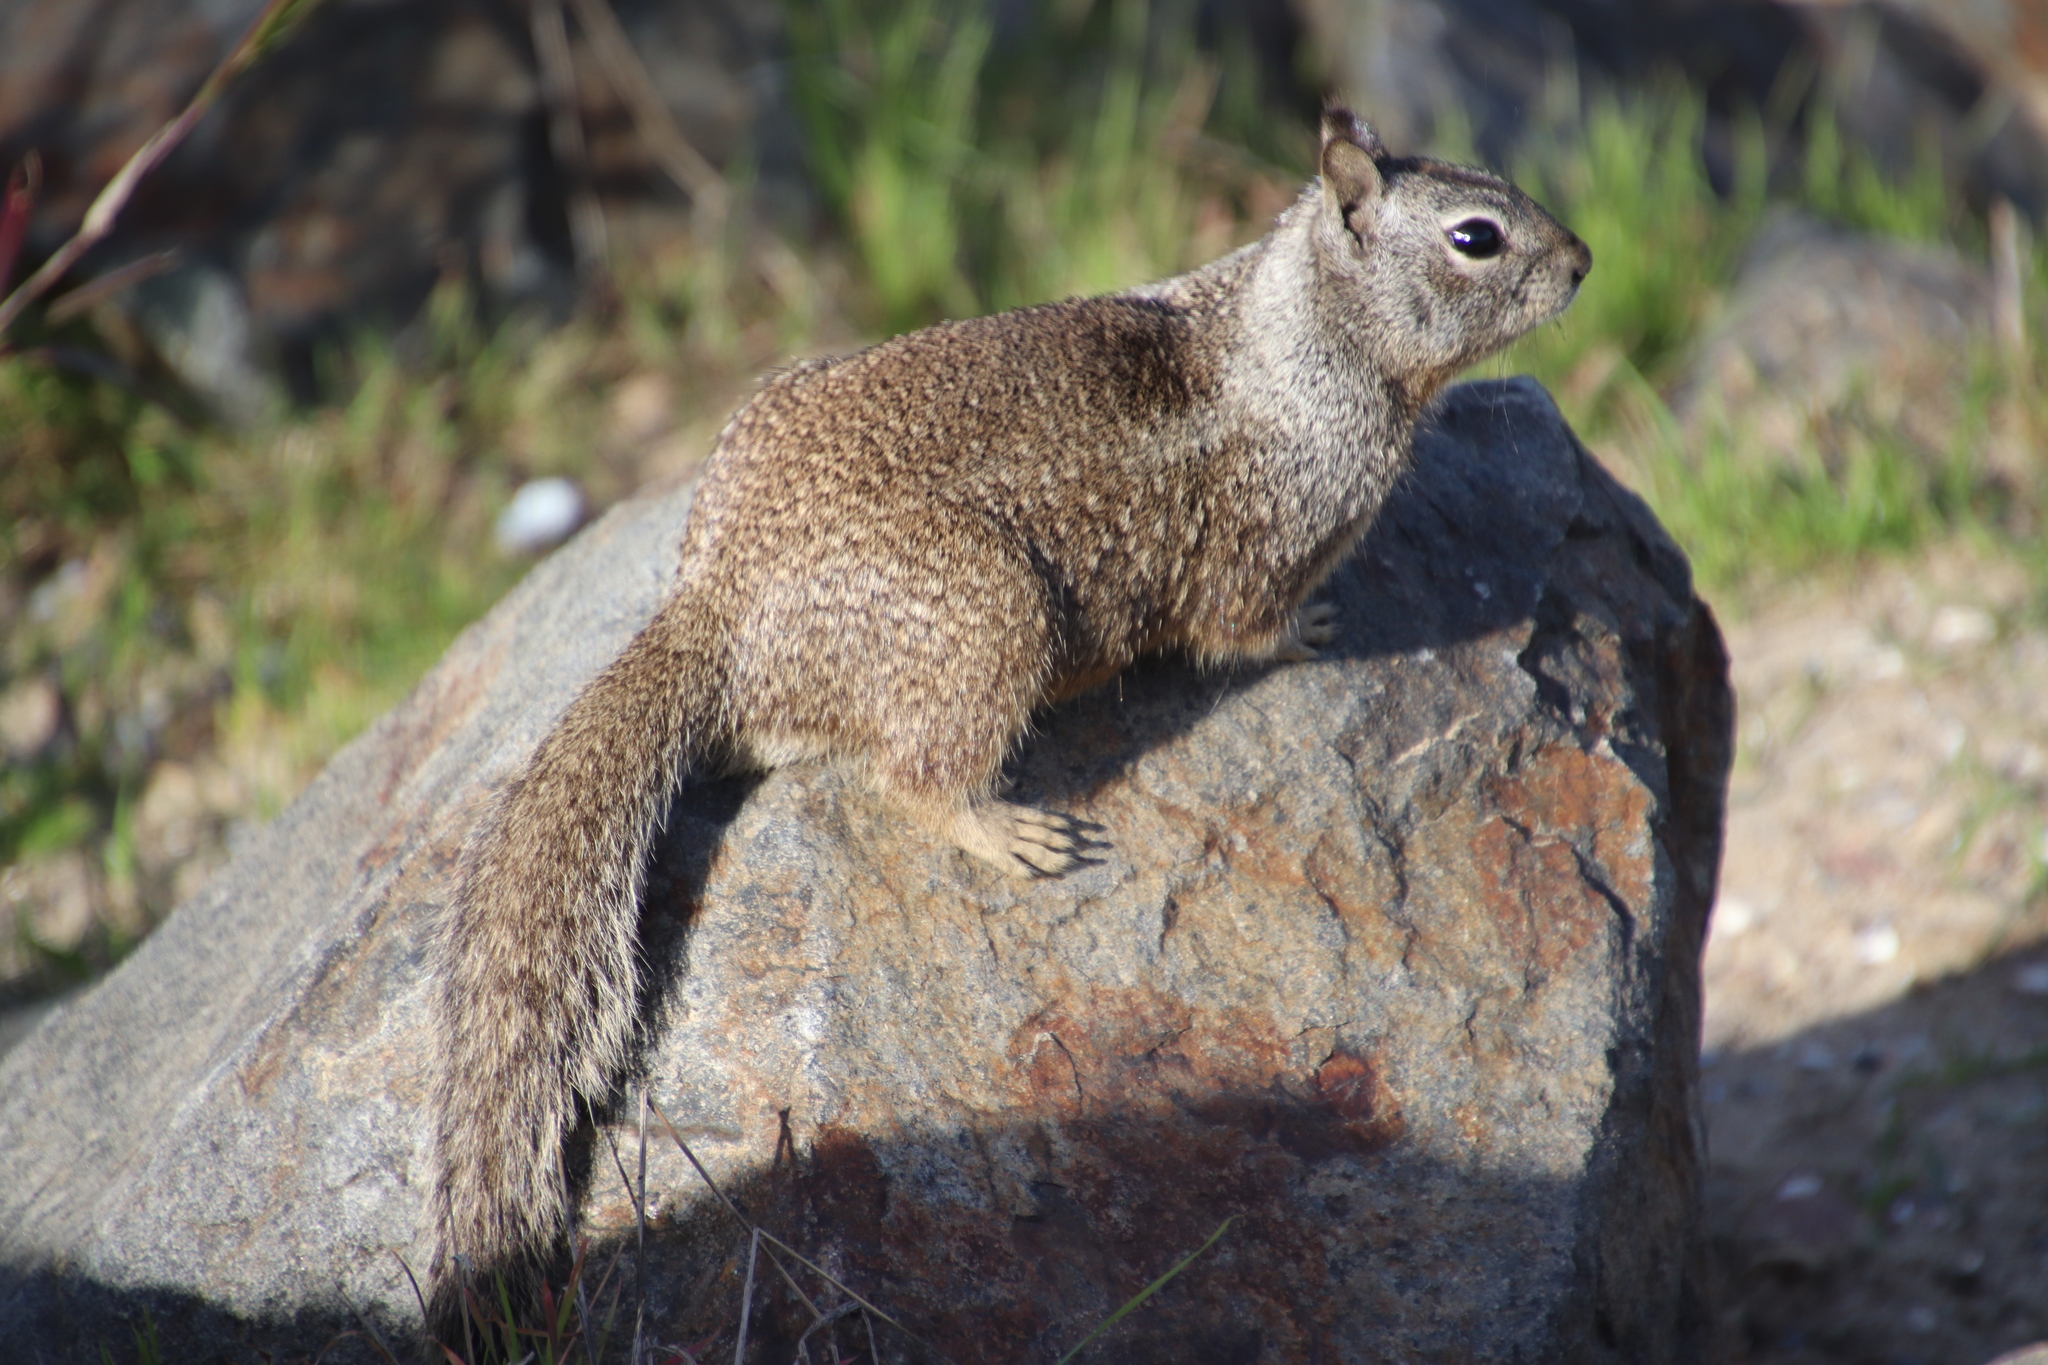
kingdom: Animalia
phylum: Chordata
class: Mammalia
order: Rodentia
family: Sciuridae
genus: Otospermophilus
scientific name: Otospermophilus beecheyi
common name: California ground squirrel
